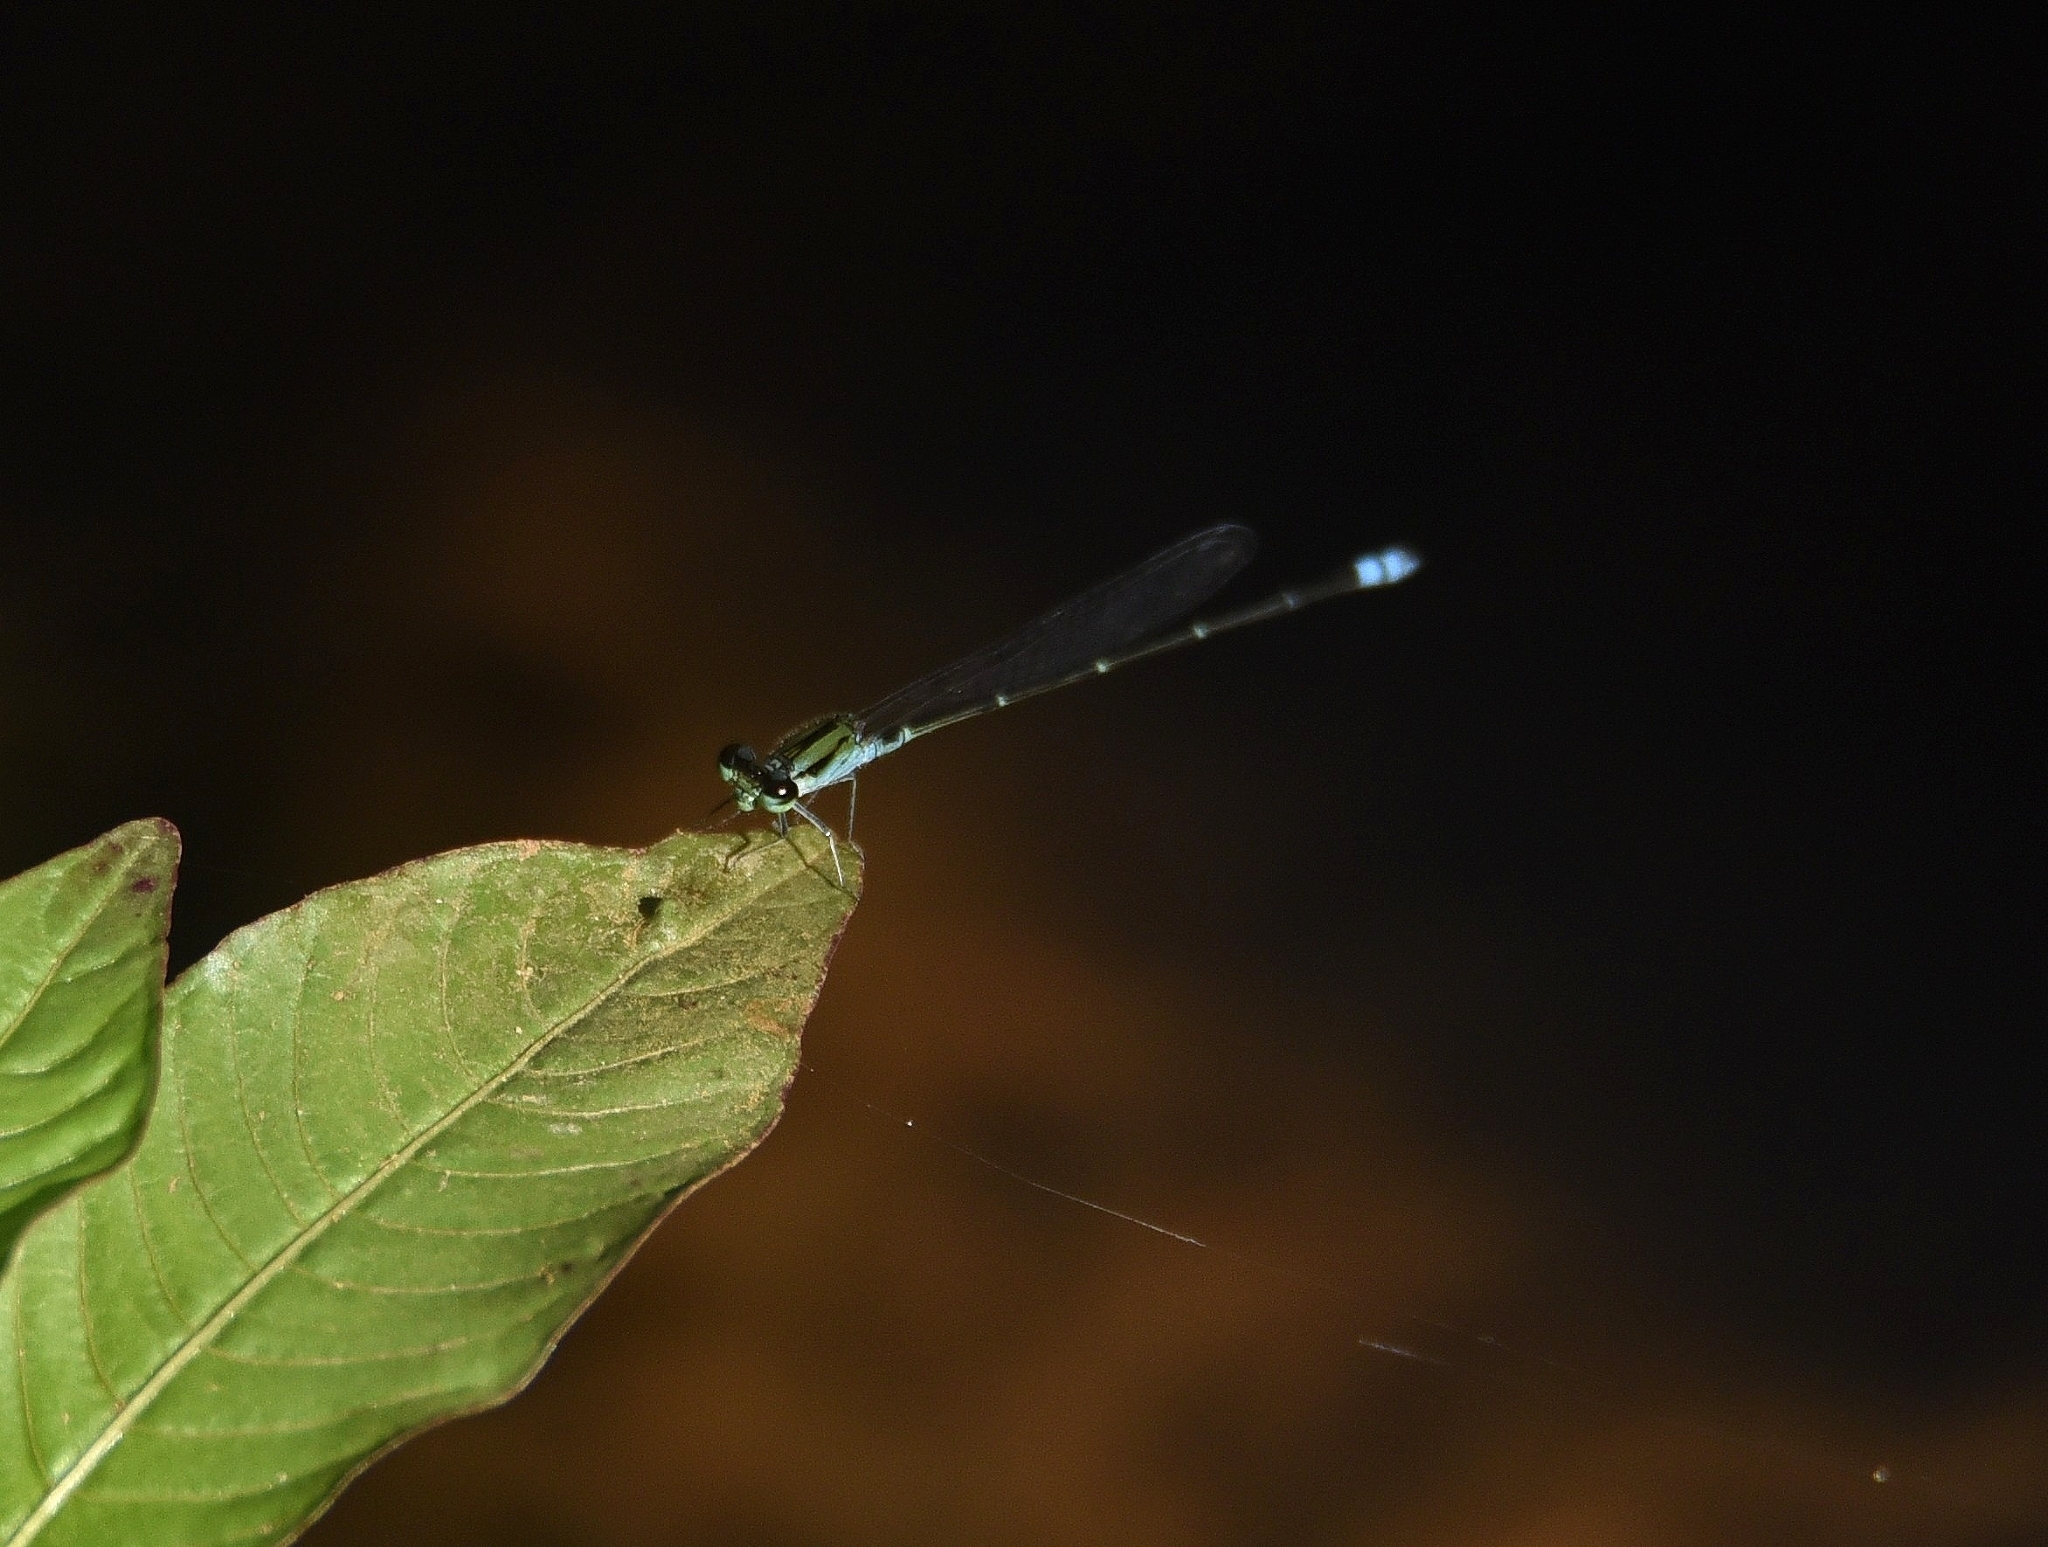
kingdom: Animalia
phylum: Arthropoda
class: Insecta
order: Odonata
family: Coenagrionidae
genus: Pseudagrion
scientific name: Pseudagrion indicum
